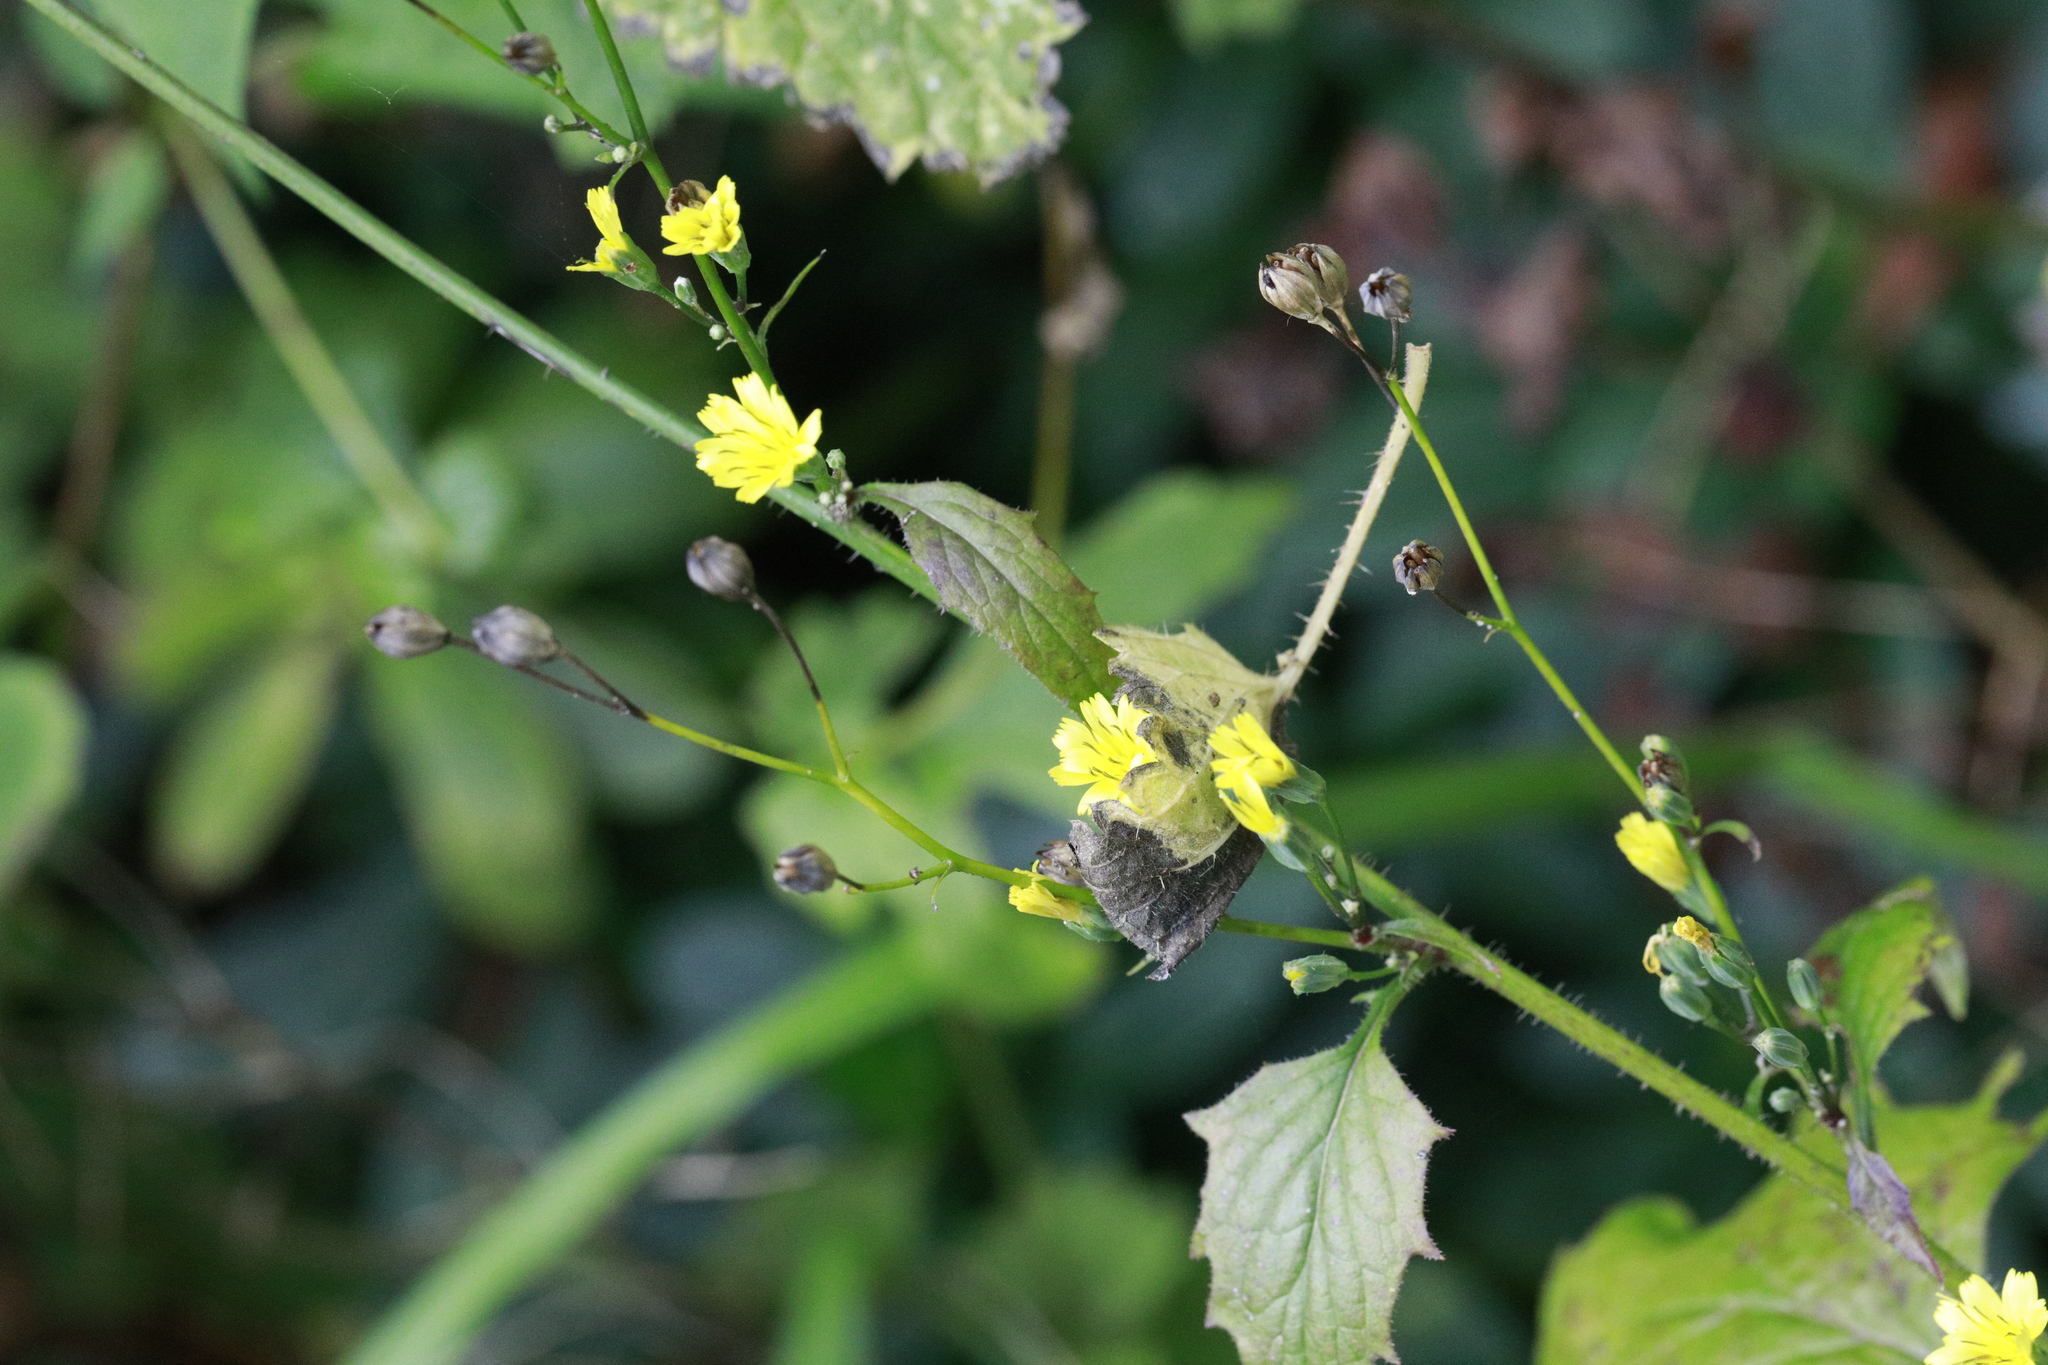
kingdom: Plantae
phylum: Tracheophyta
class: Magnoliopsida
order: Asterales
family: Asteraceae
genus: Lapsana
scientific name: Lapsana communis
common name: Nipplewort
